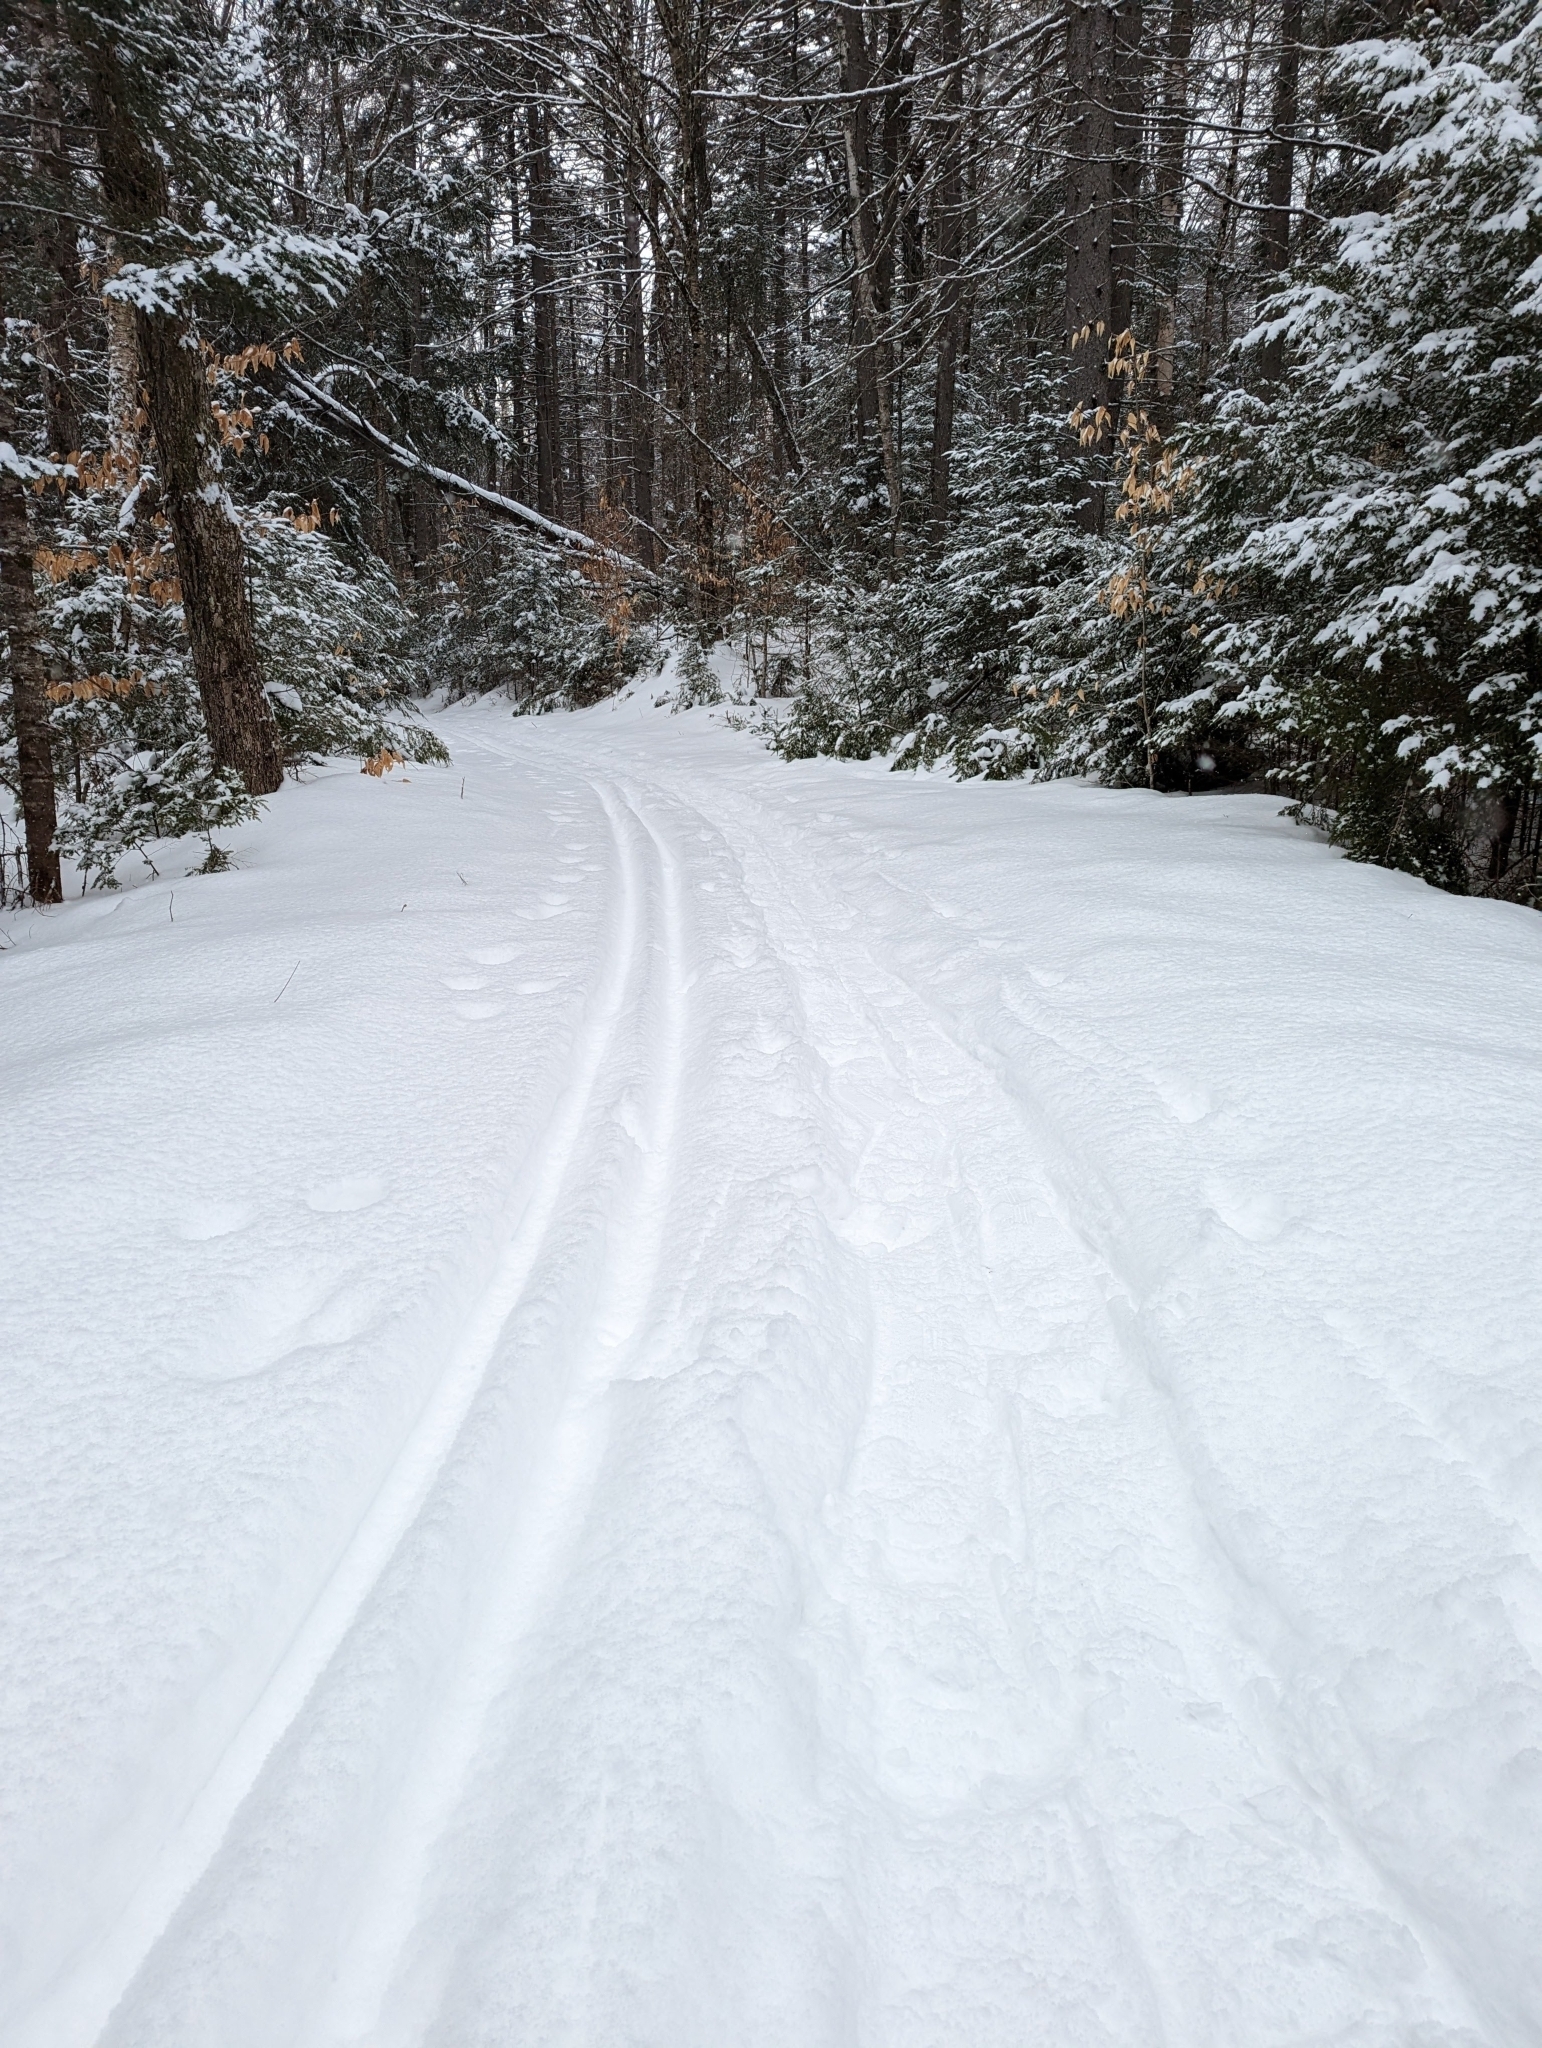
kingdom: Plantae
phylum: Tracheophyta
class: Magnoliopsida
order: Fagales
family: Fagaceae
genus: Fagus
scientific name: Fagus grandifolia
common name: American beech
